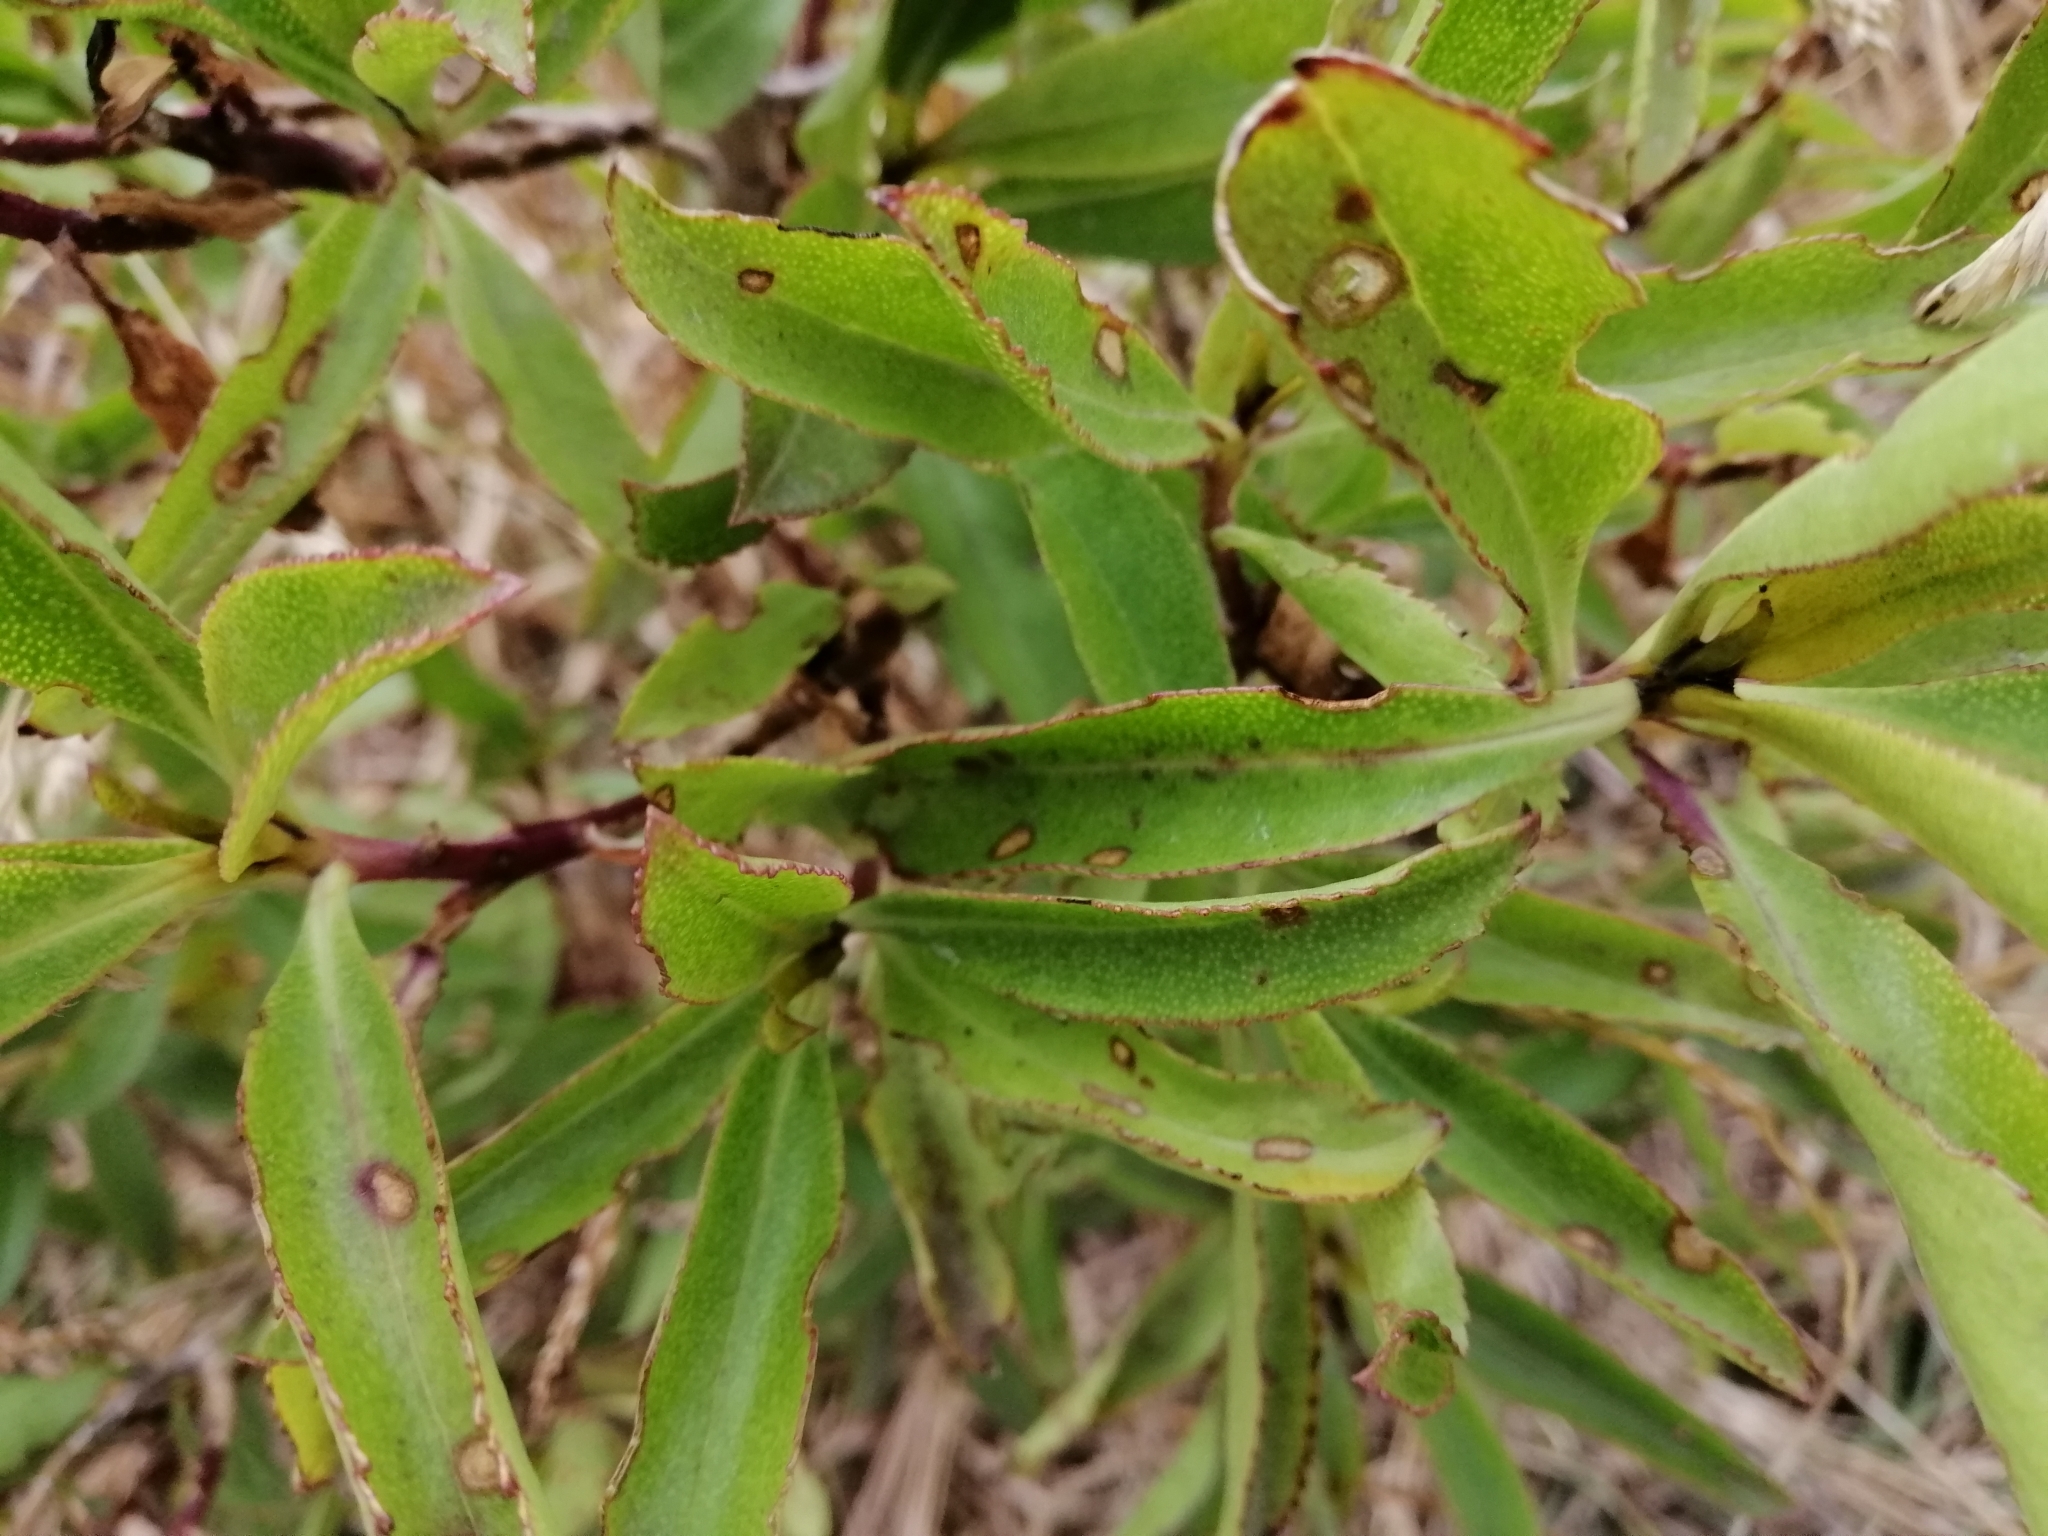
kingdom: Plantae
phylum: Tracheophyta
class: Magnoliopsida
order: Lamiales
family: Scrophulariaceae
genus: Myoporum
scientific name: Myoporum laetum
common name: Ngaio tree
